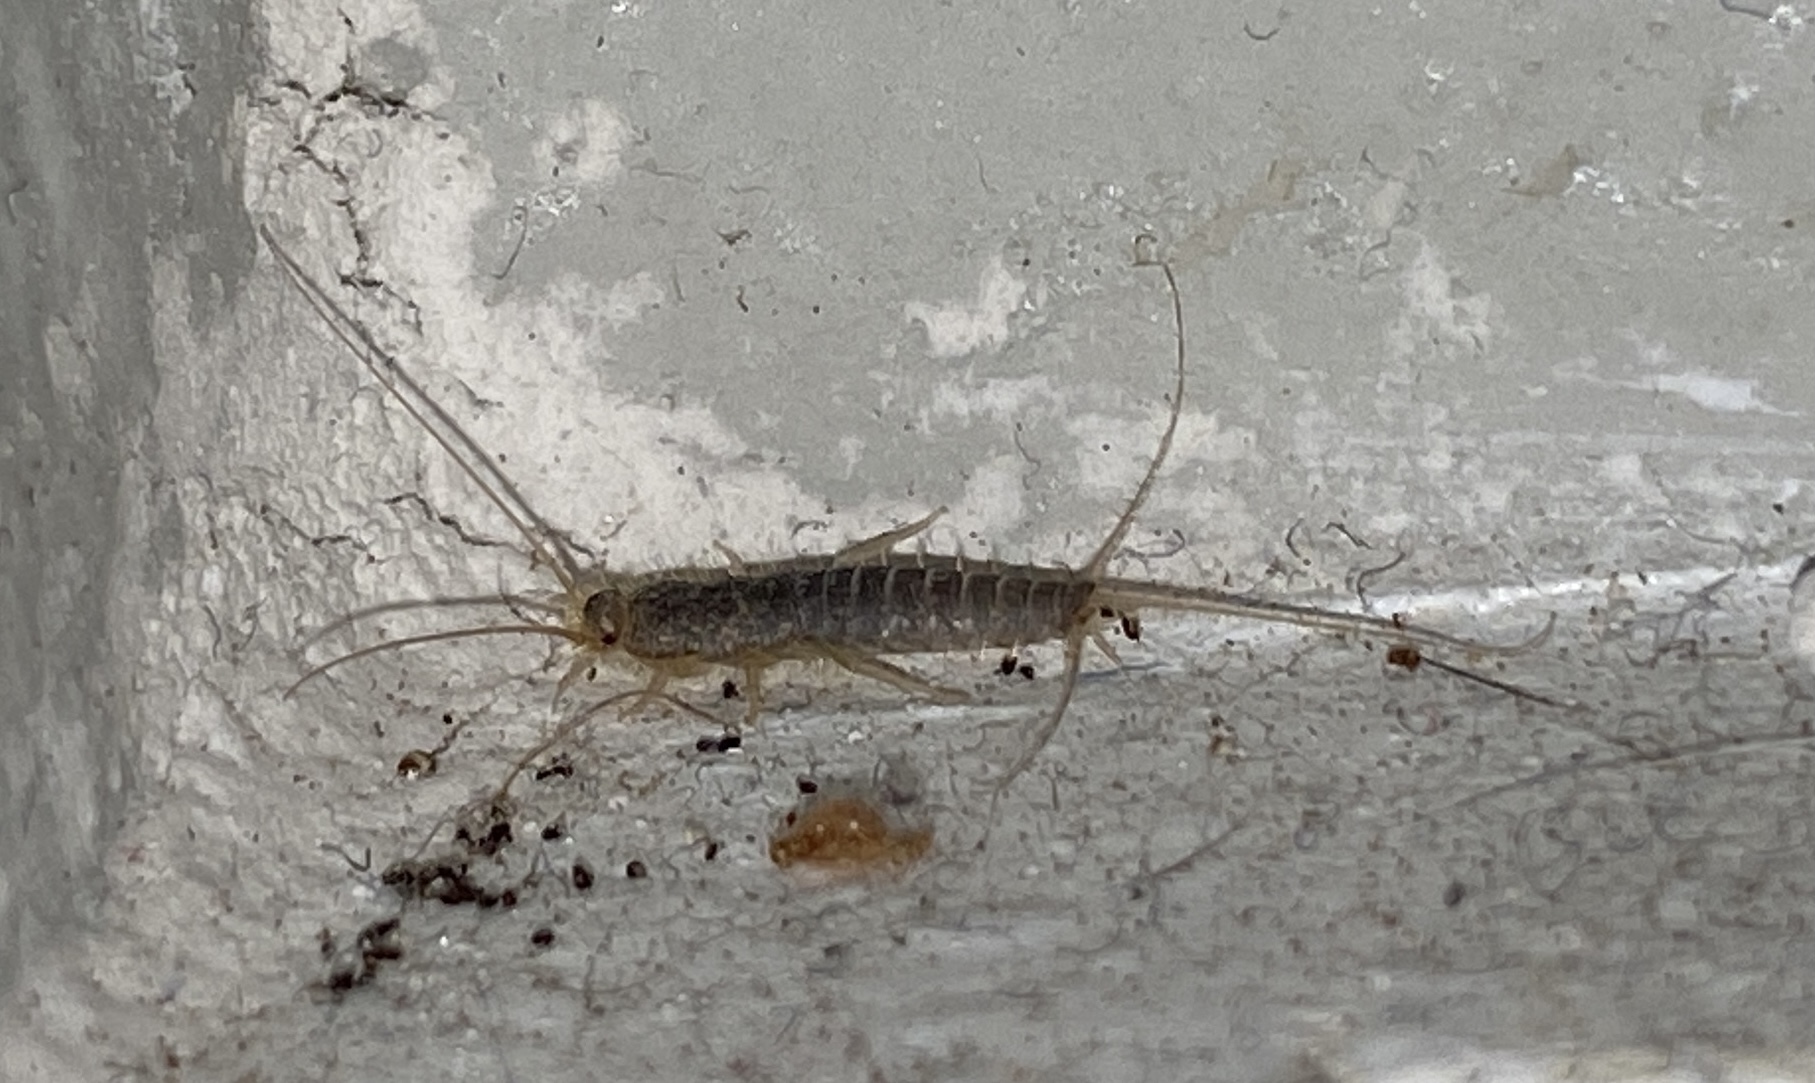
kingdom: Animalia
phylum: Arthropoda
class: Insecta
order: Zygentoma
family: Lepismatidae
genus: Ctenolepisma
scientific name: Ctenolepisma longicaudatum
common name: Silverfish
